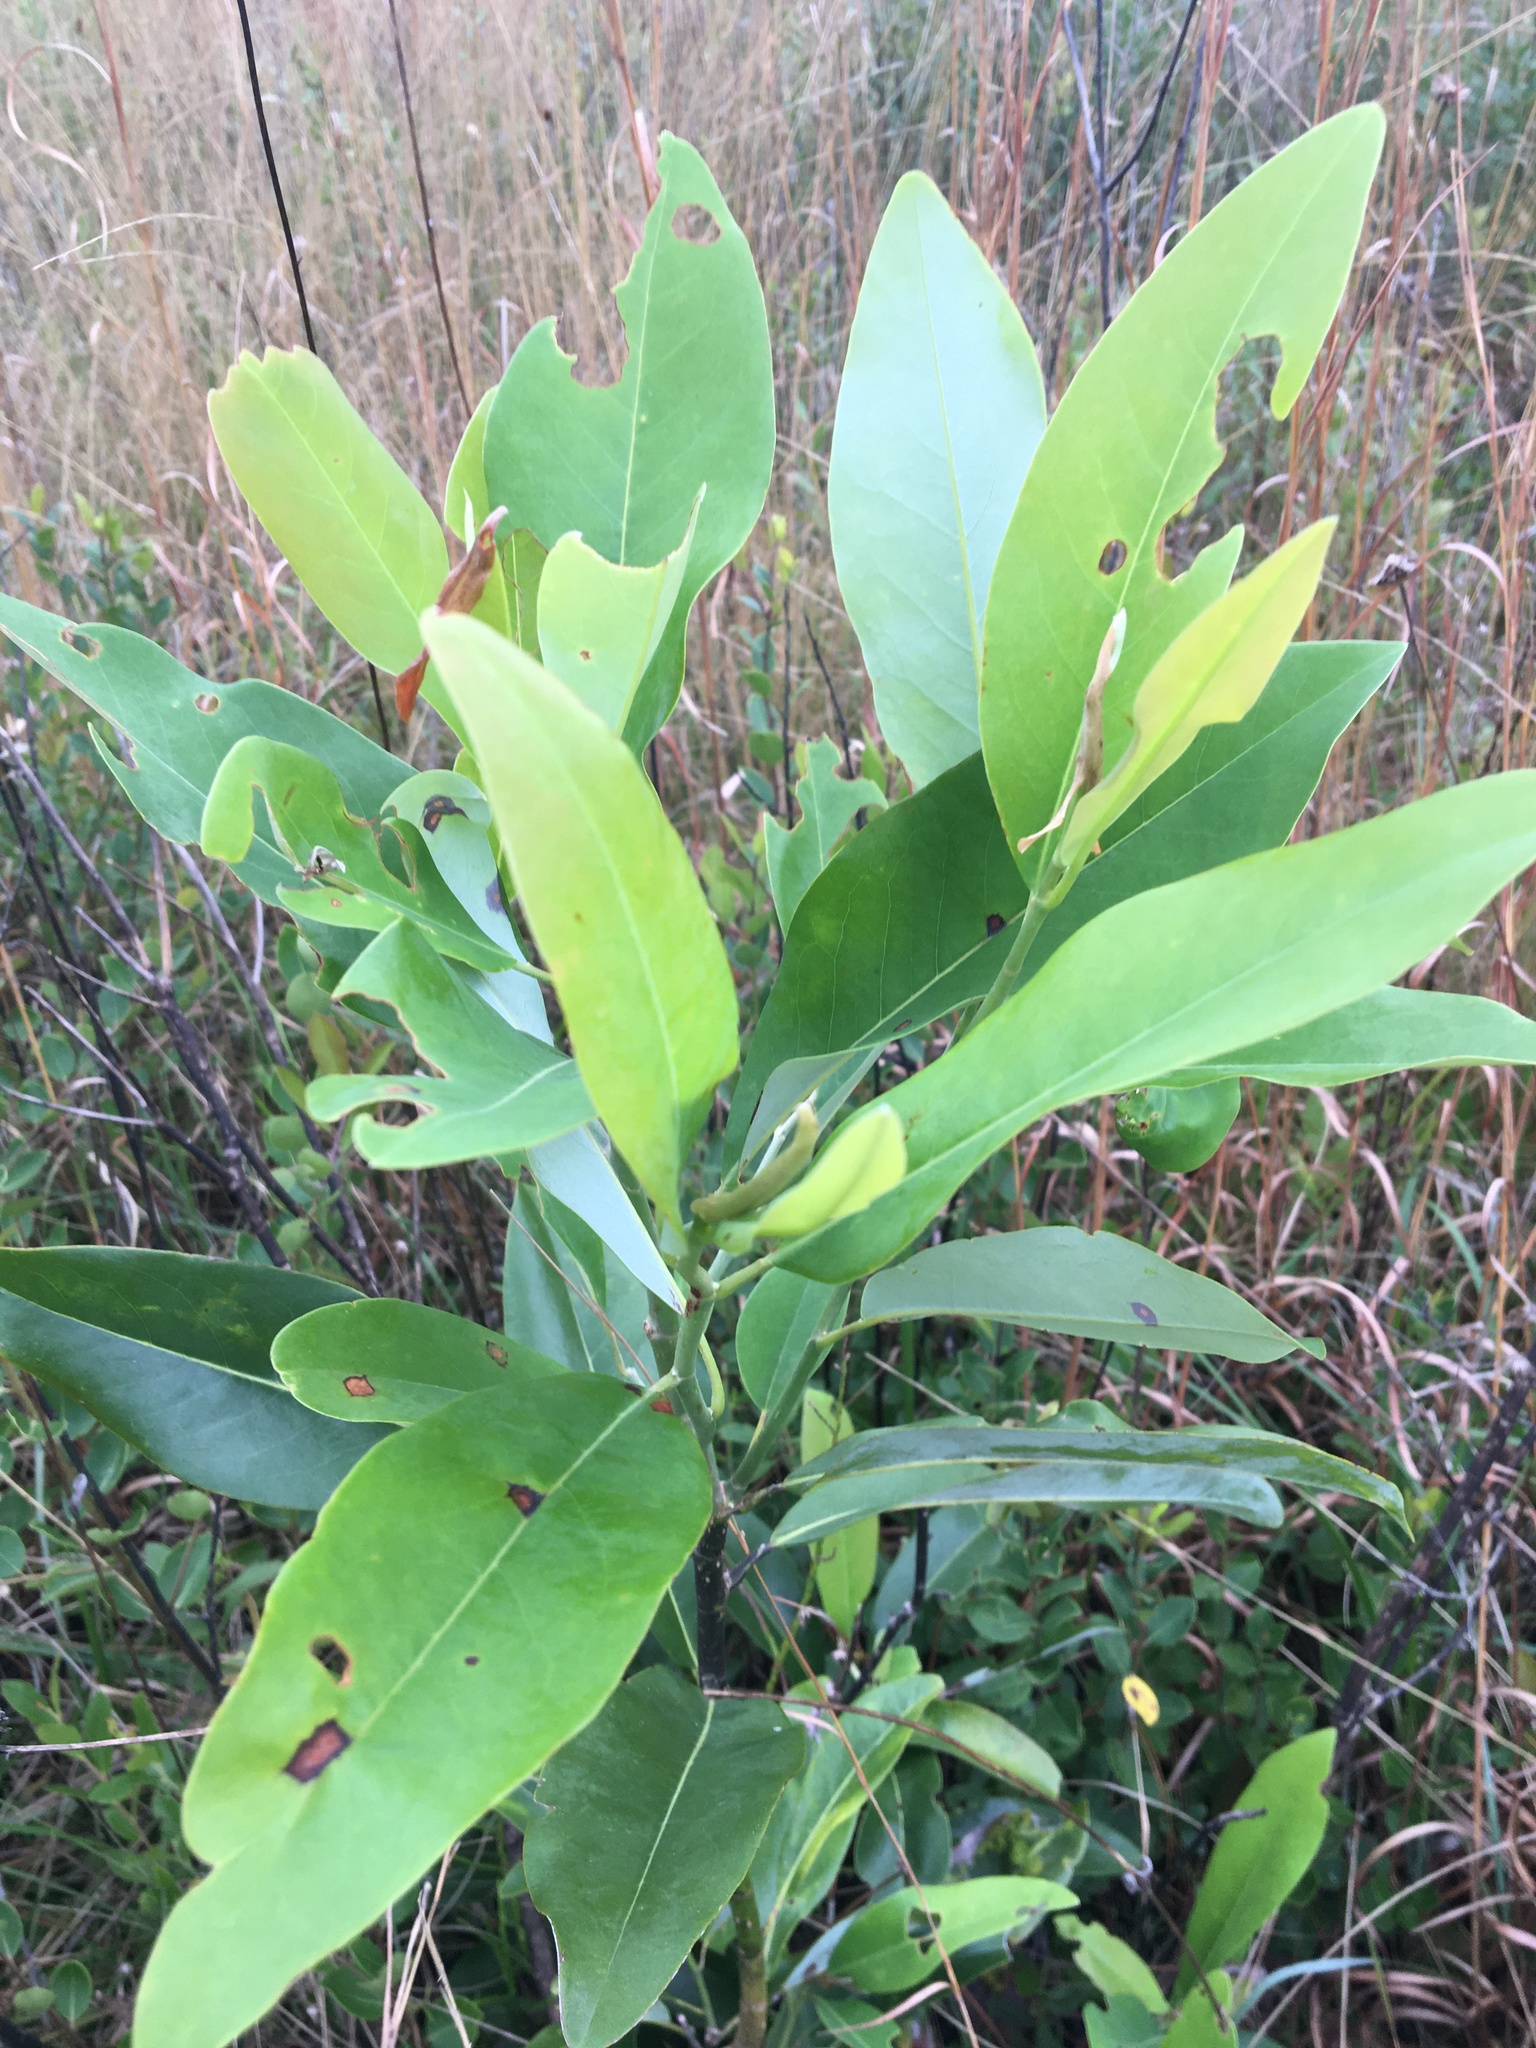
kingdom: Plantae
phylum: Tracheophyta
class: Magnoliopsida
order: Magnoliales
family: Magnoliaceae
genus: Magnolia
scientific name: Magnolia virginiana
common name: Swamp bay
